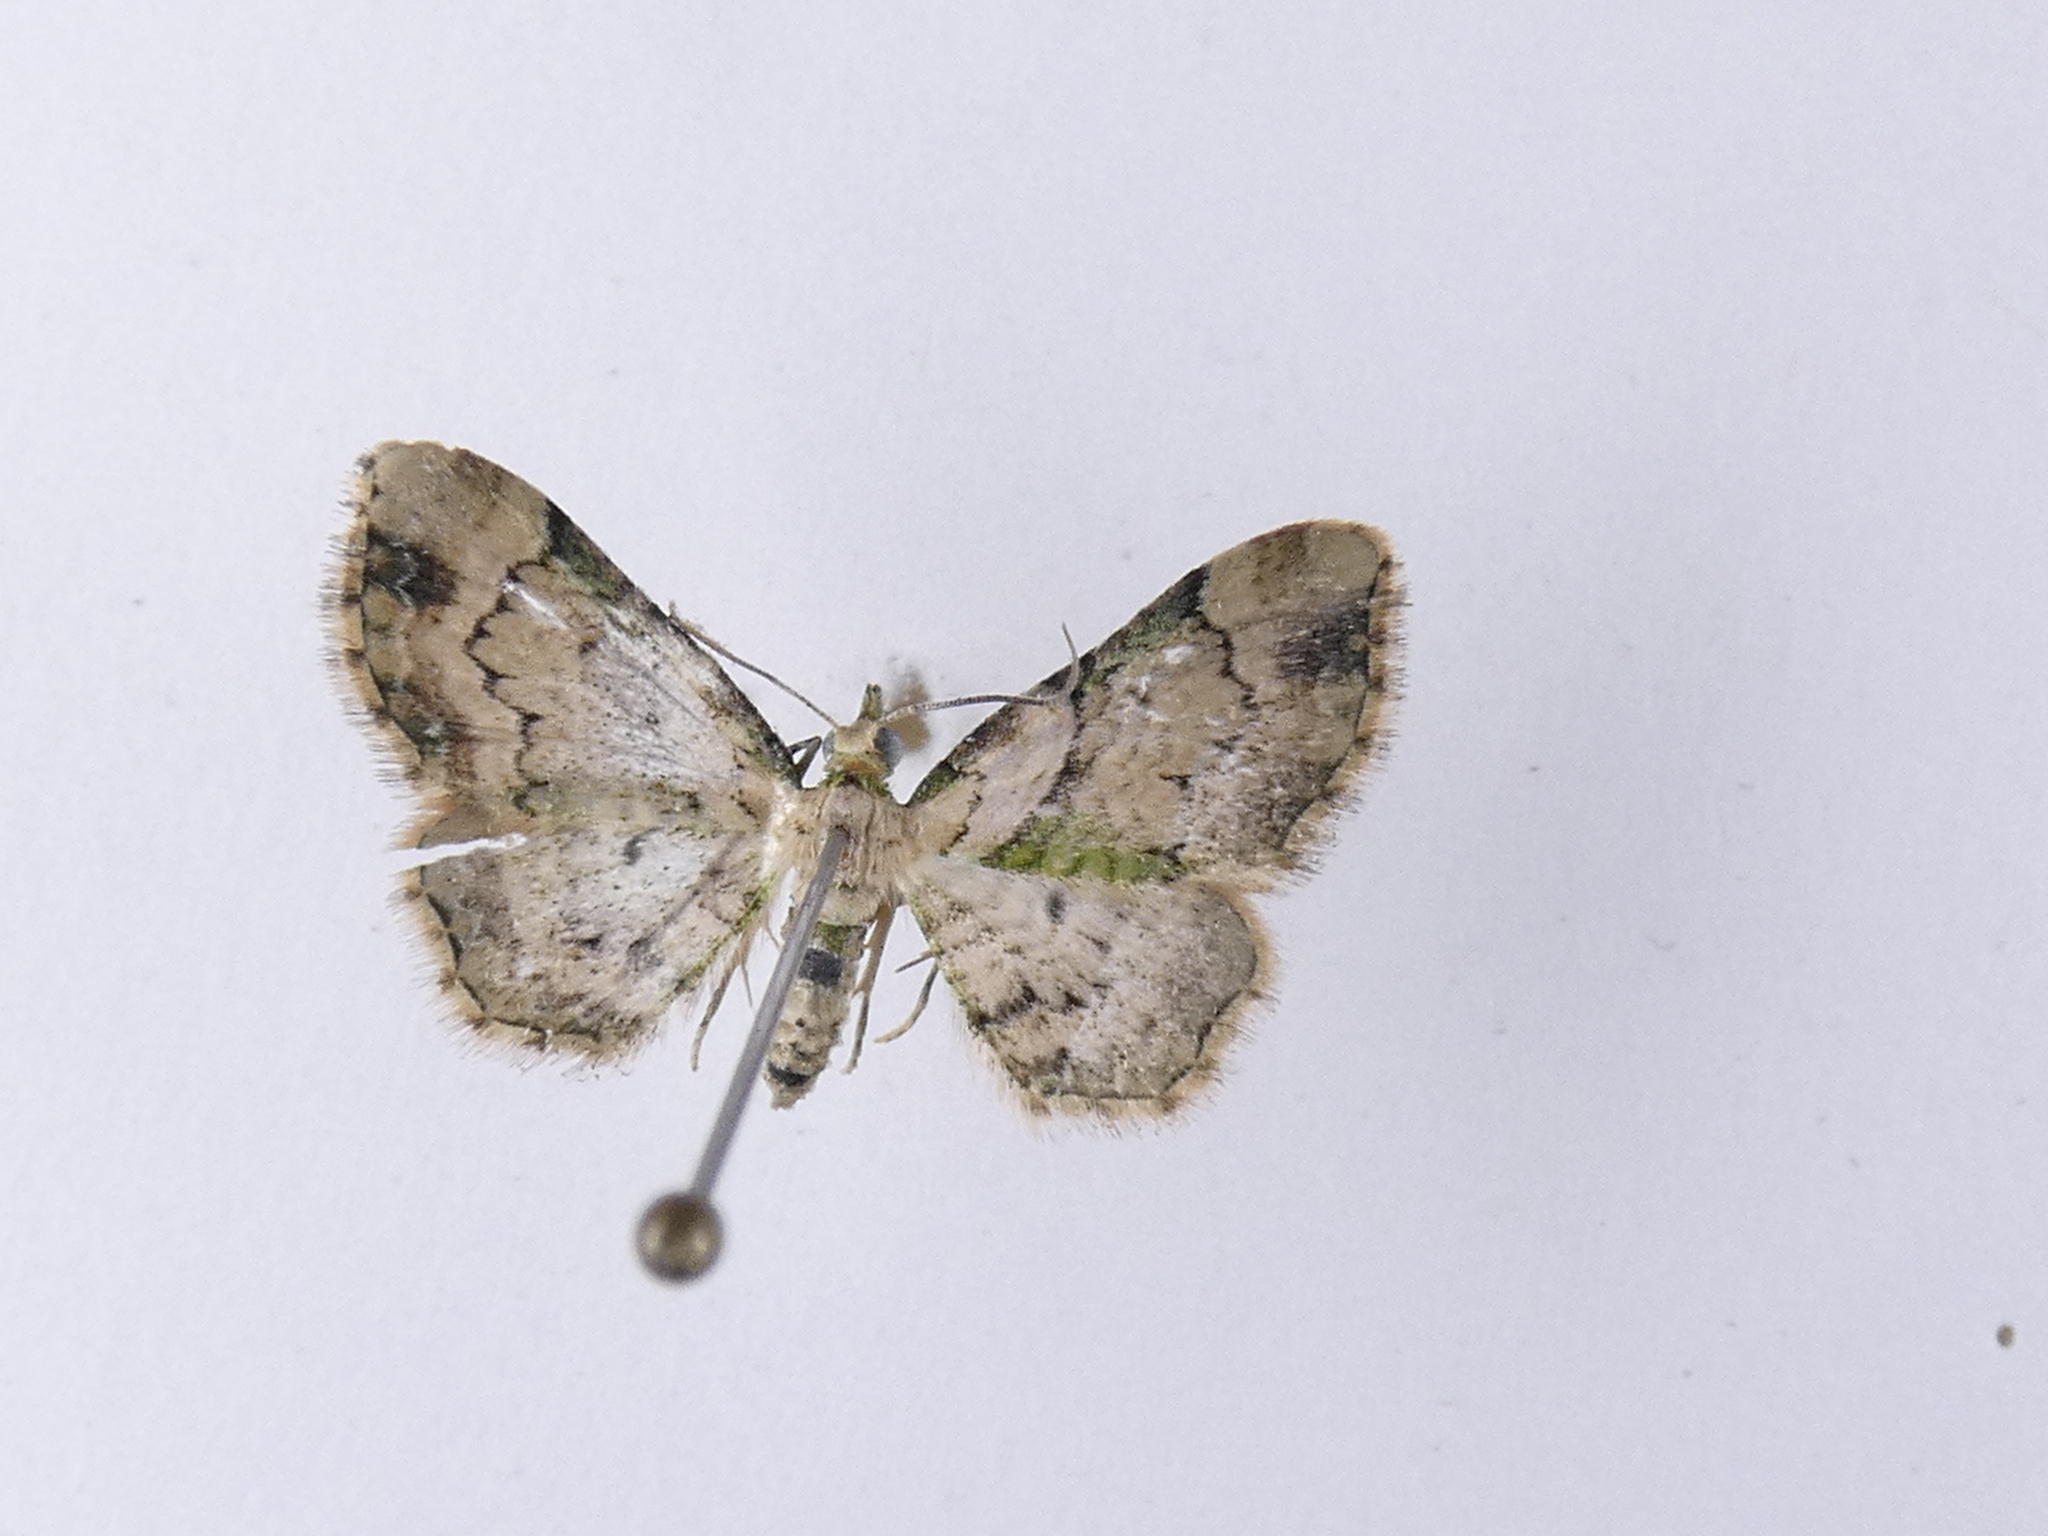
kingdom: Animalia
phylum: Arthropoda
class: Insecta
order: Lepidoptera
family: Geometridae
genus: Chloroclystis
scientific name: Chloroclystis
